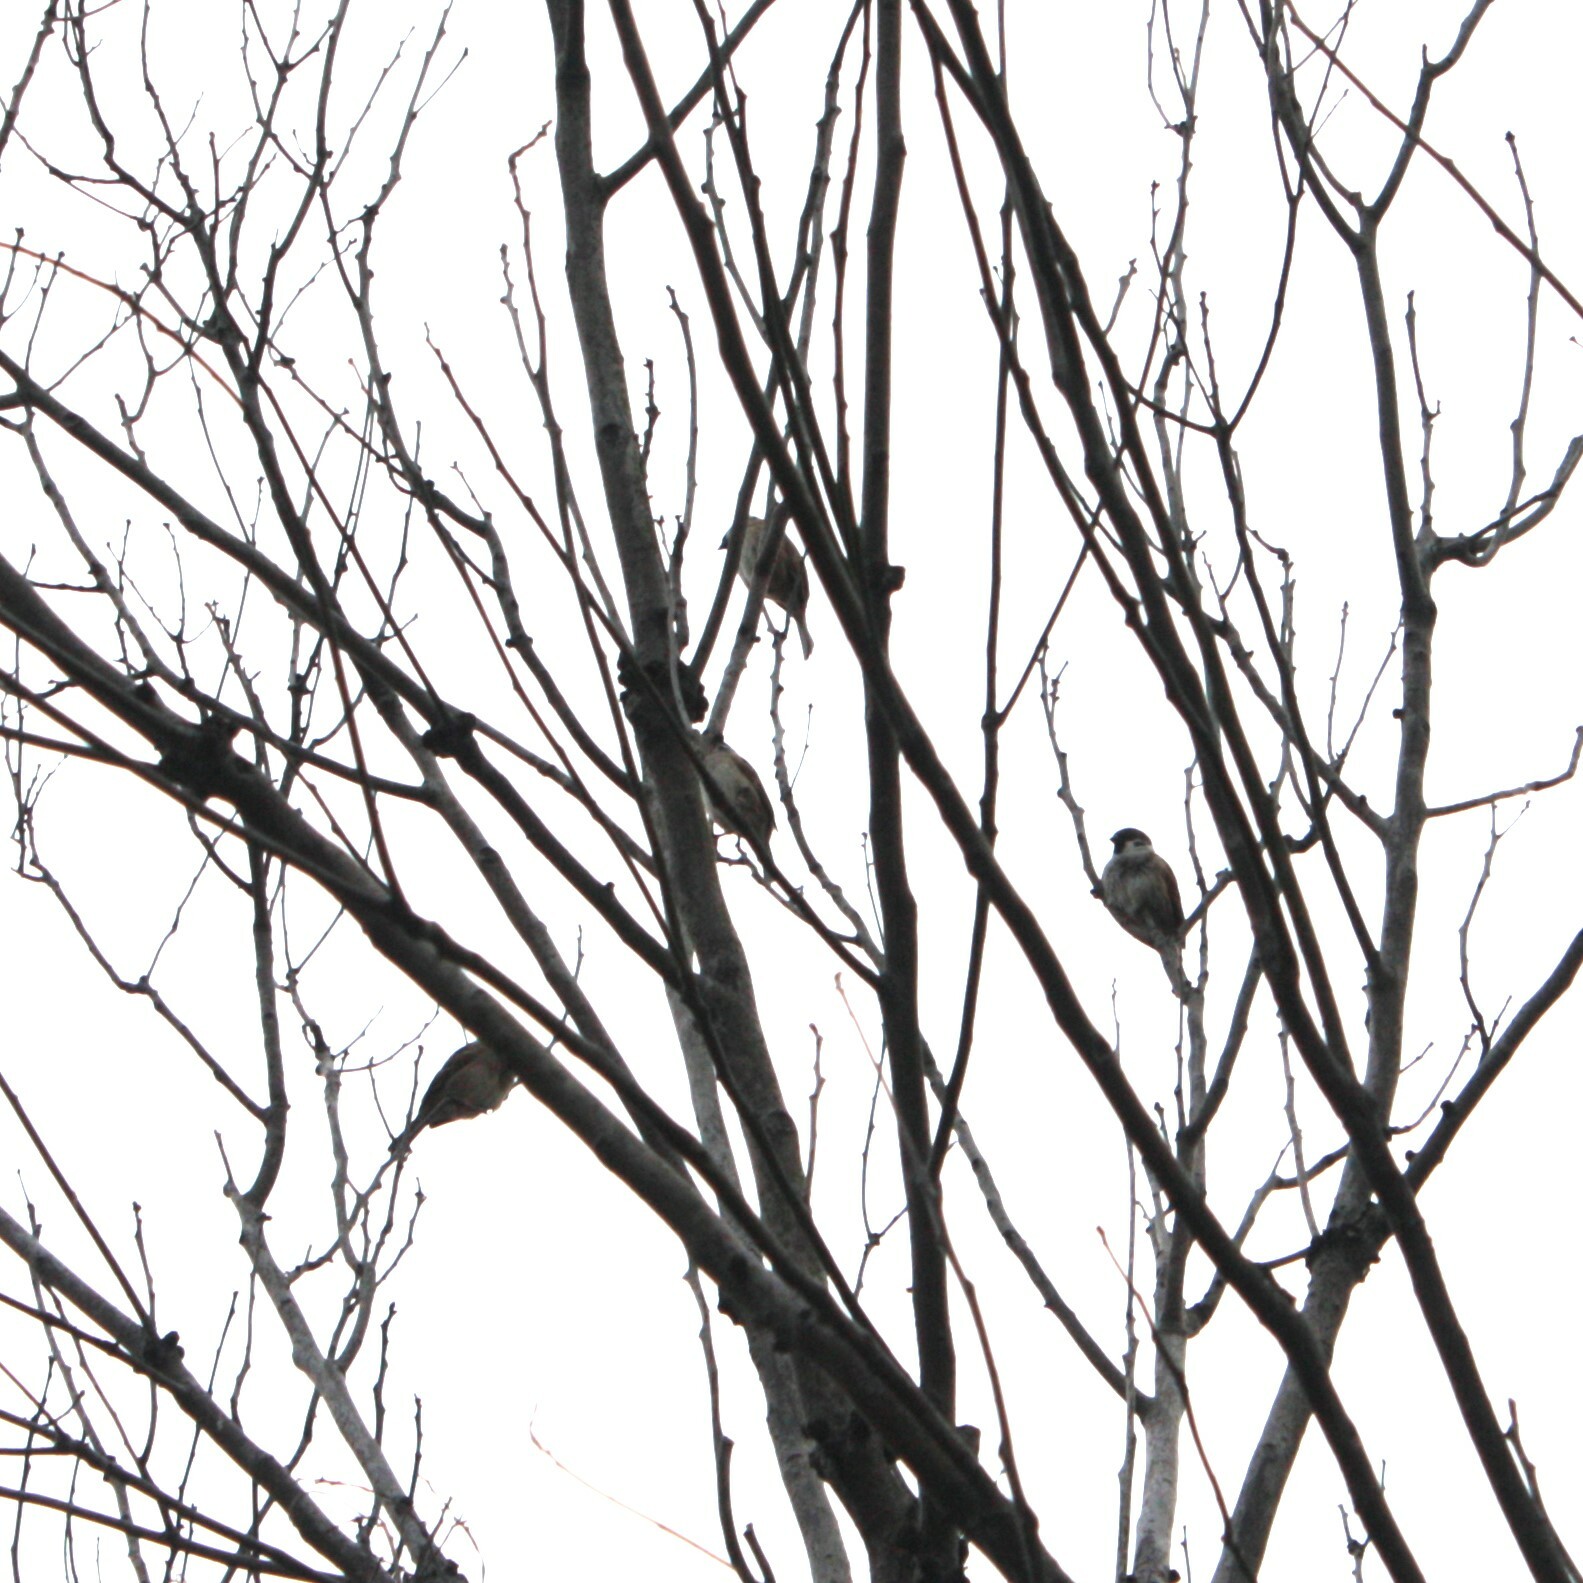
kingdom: Animalia
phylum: Chordata
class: Aves
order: Passeriformes
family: Passeridae
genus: Passer
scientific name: Passer montanus
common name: Eurasian tree sparrow
